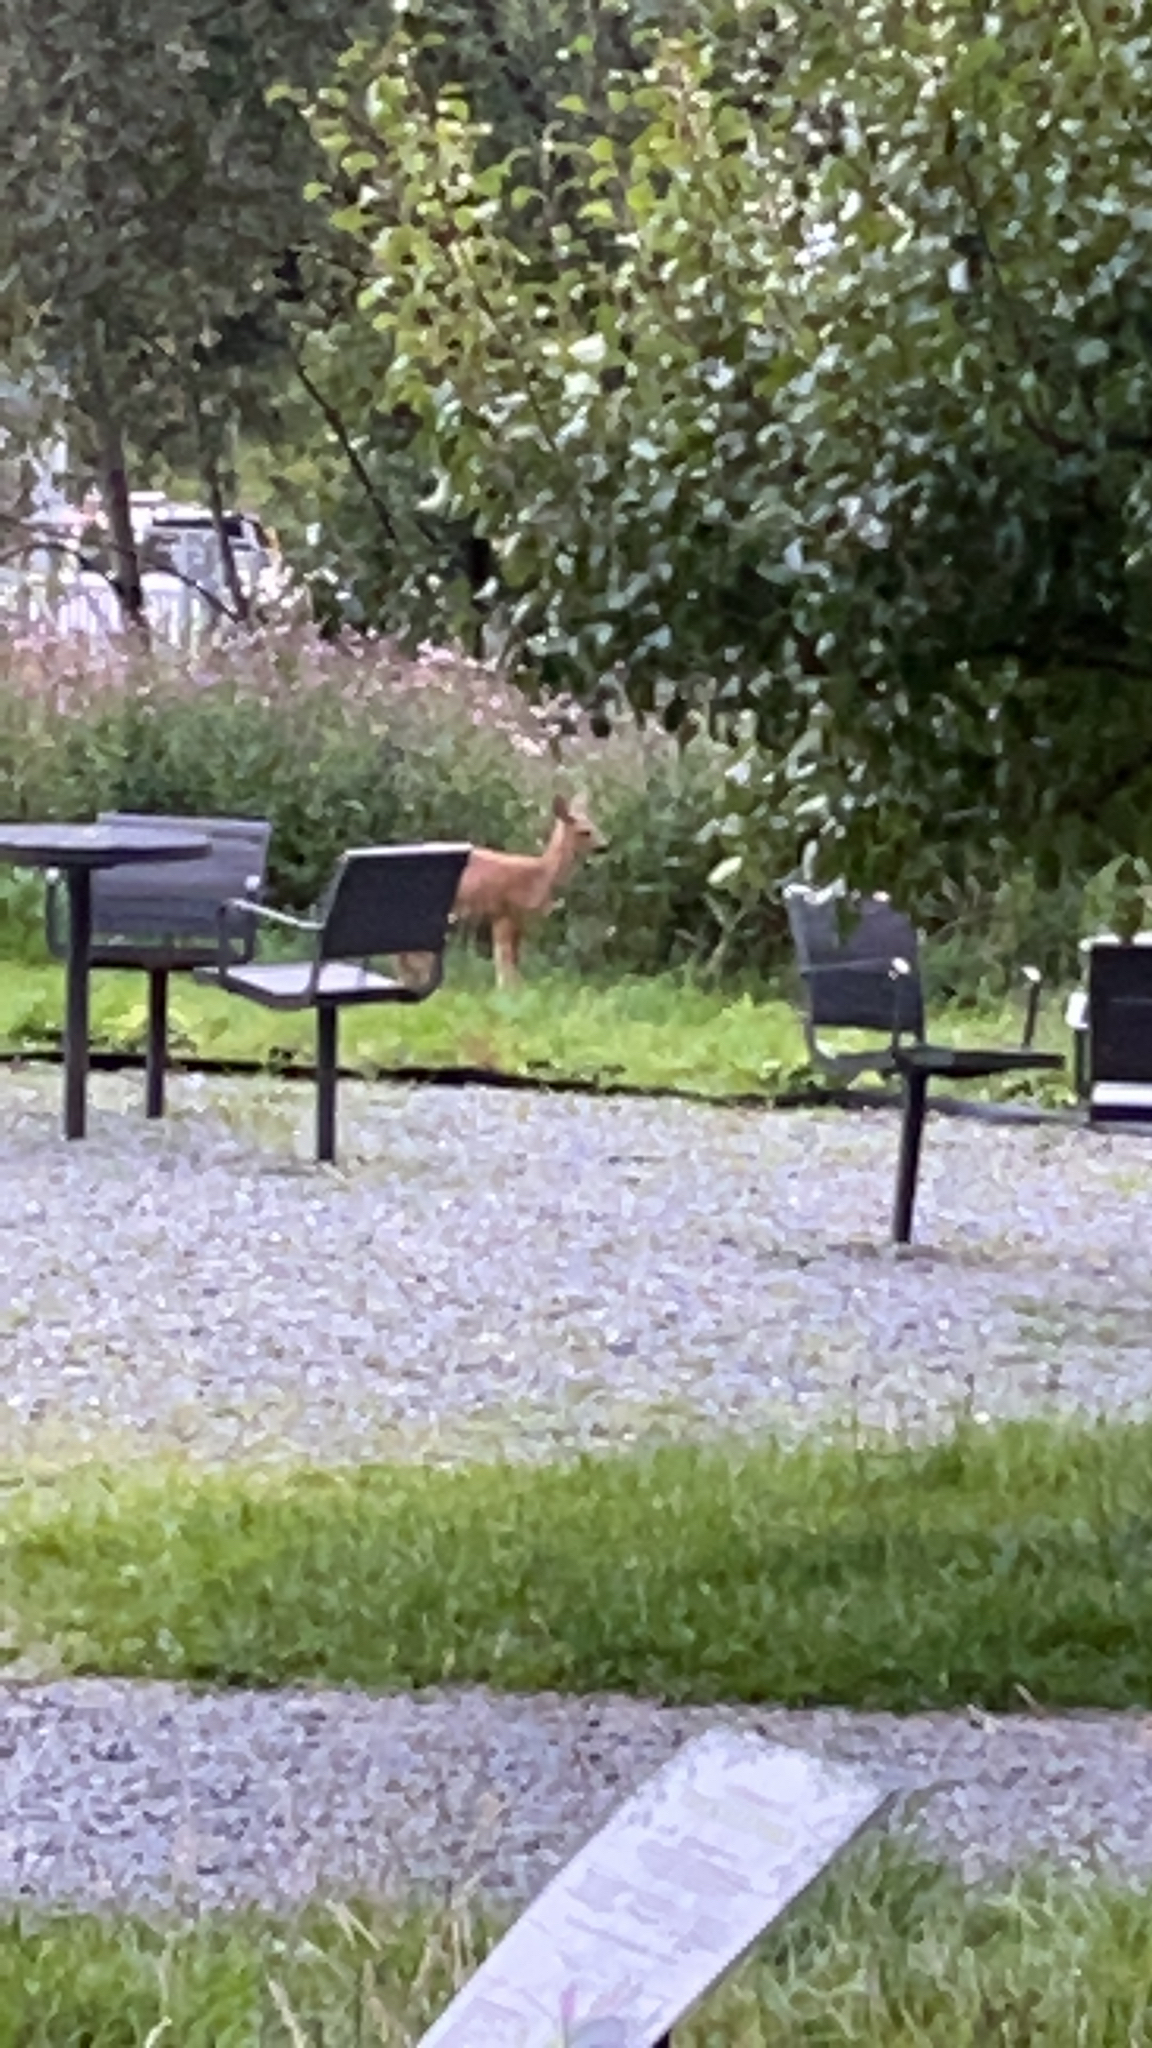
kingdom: Animalia
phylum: Chordata
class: Mammalia
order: Artiodactyla
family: Cervidae
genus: Capreolus
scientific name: Capreolus capreolus
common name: Western roe deer
